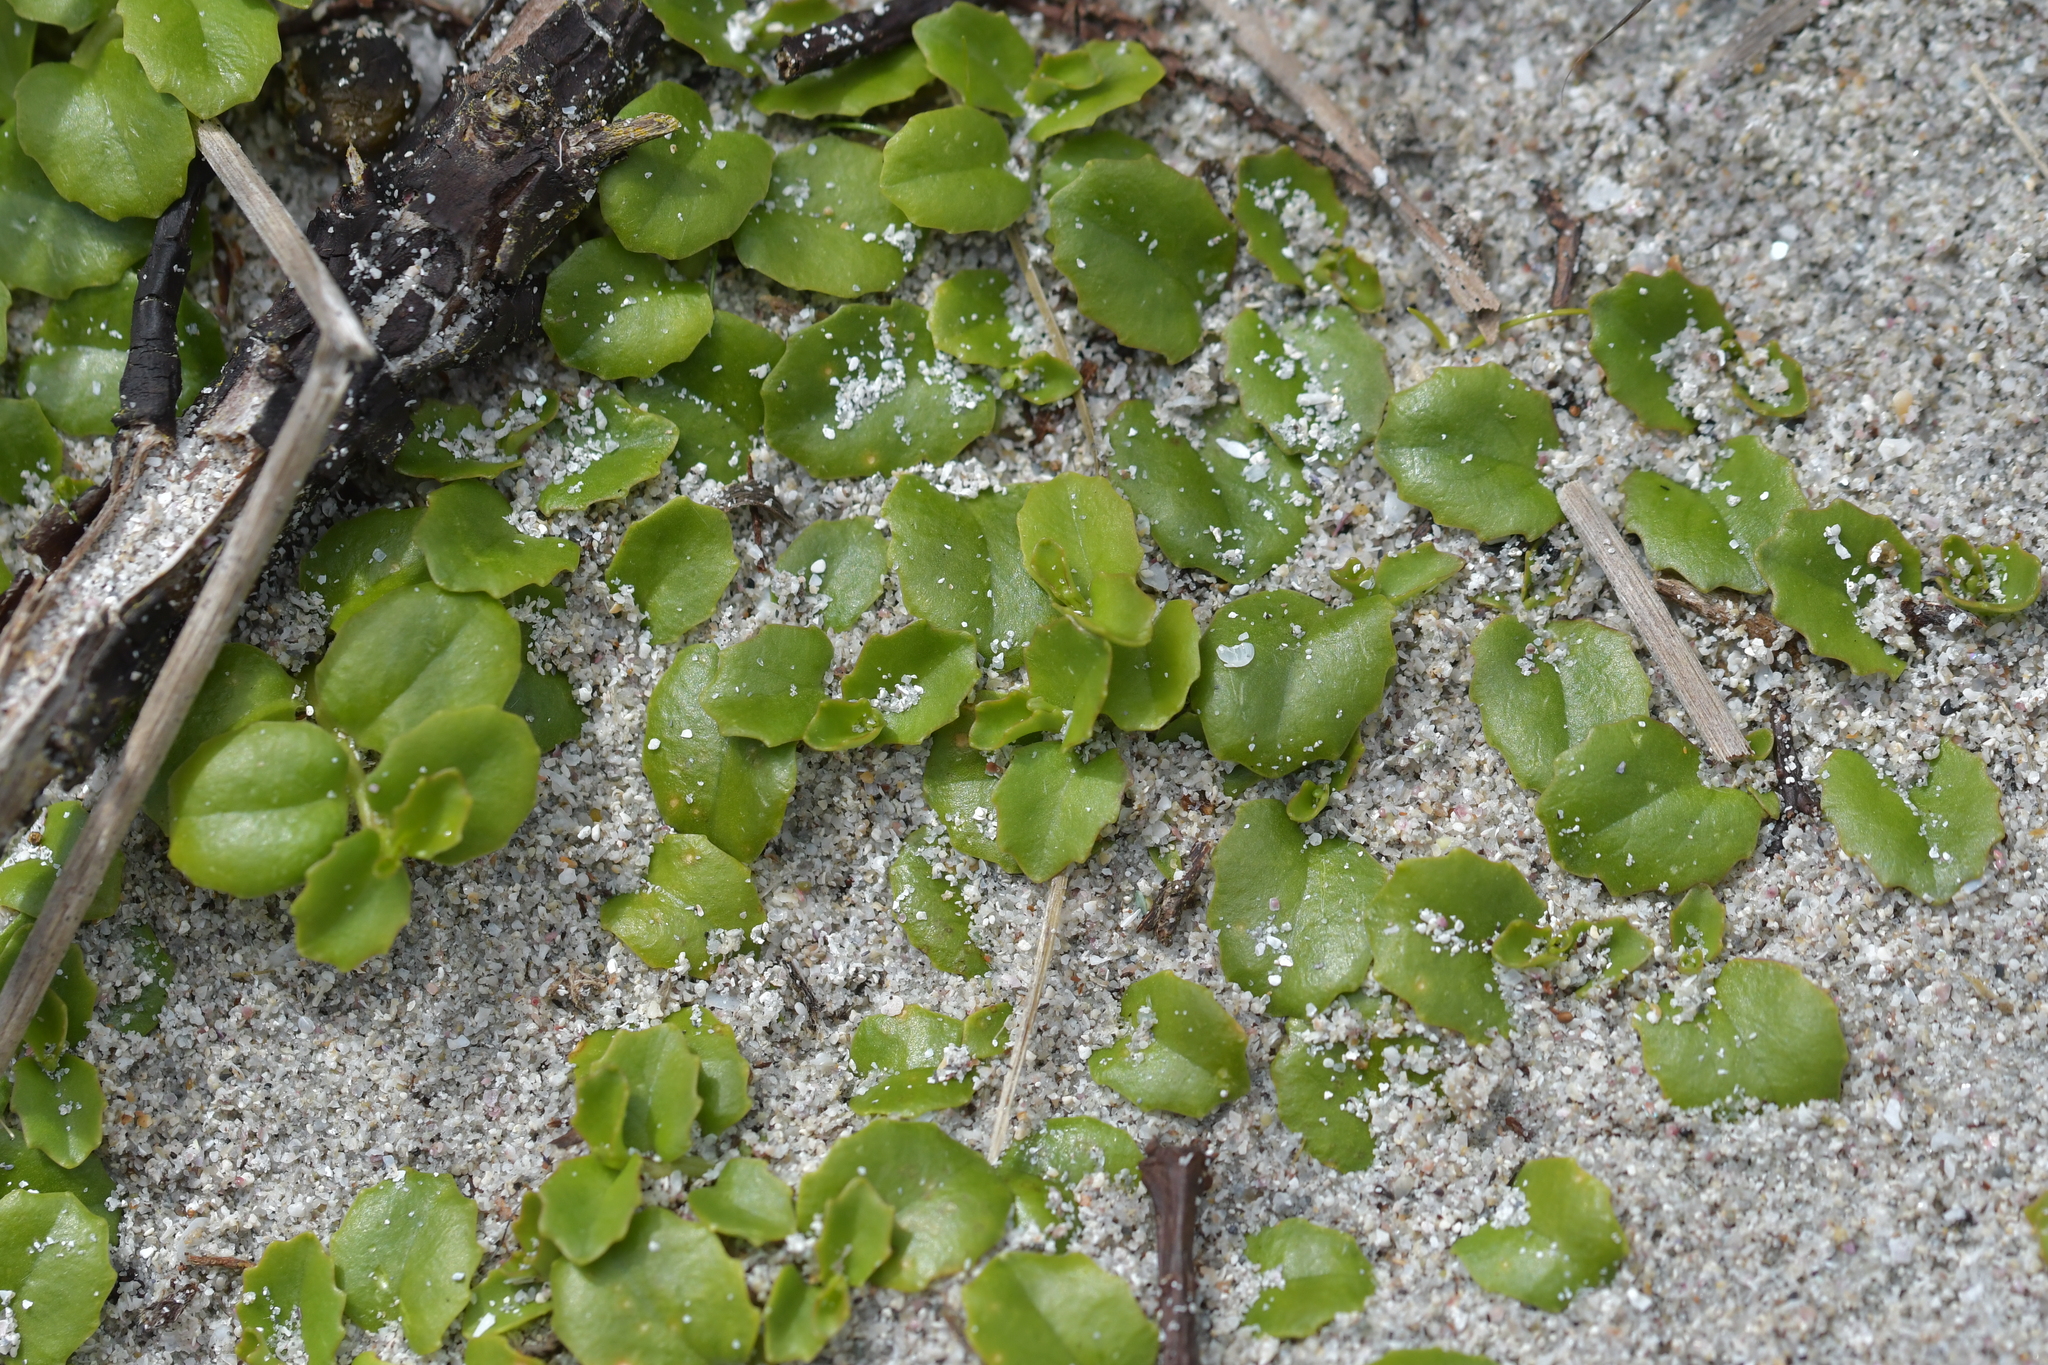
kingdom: Plantae
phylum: Tracheophyta
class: Magnoliopsida
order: Asterales
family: Campanulaceae
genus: Lobelia
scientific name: Lobelia arenaria
